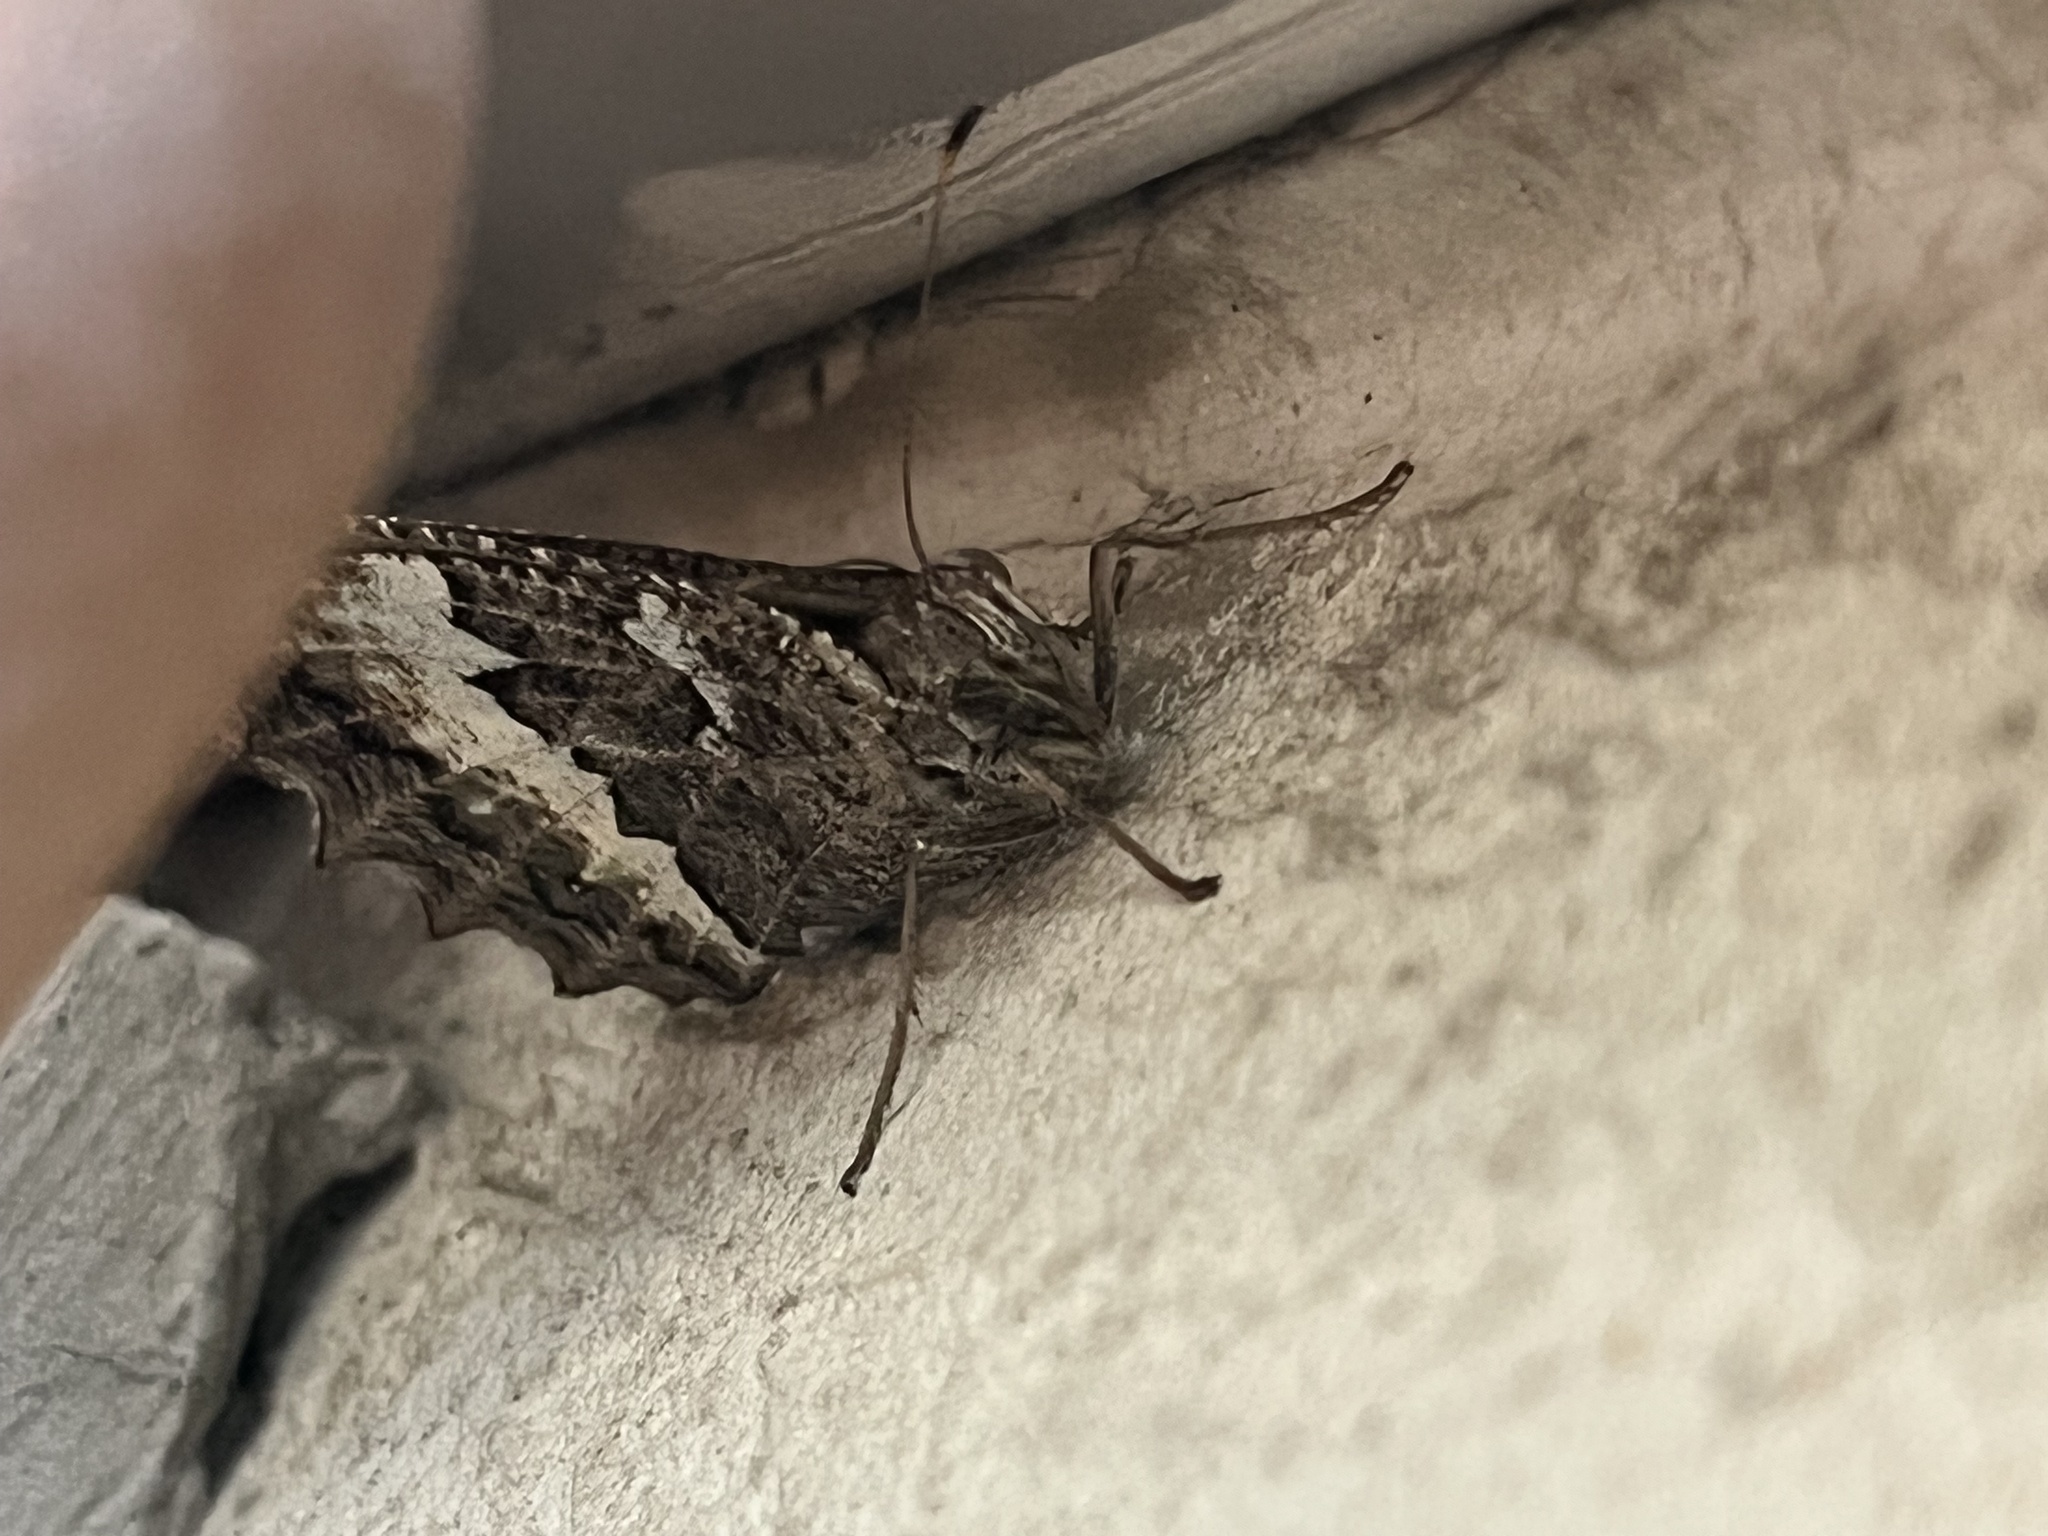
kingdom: Animalia
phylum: Arthropoda
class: Insecta
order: Lepidoptera
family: Lycaenidae
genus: Loweia
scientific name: Loweia tityrus
